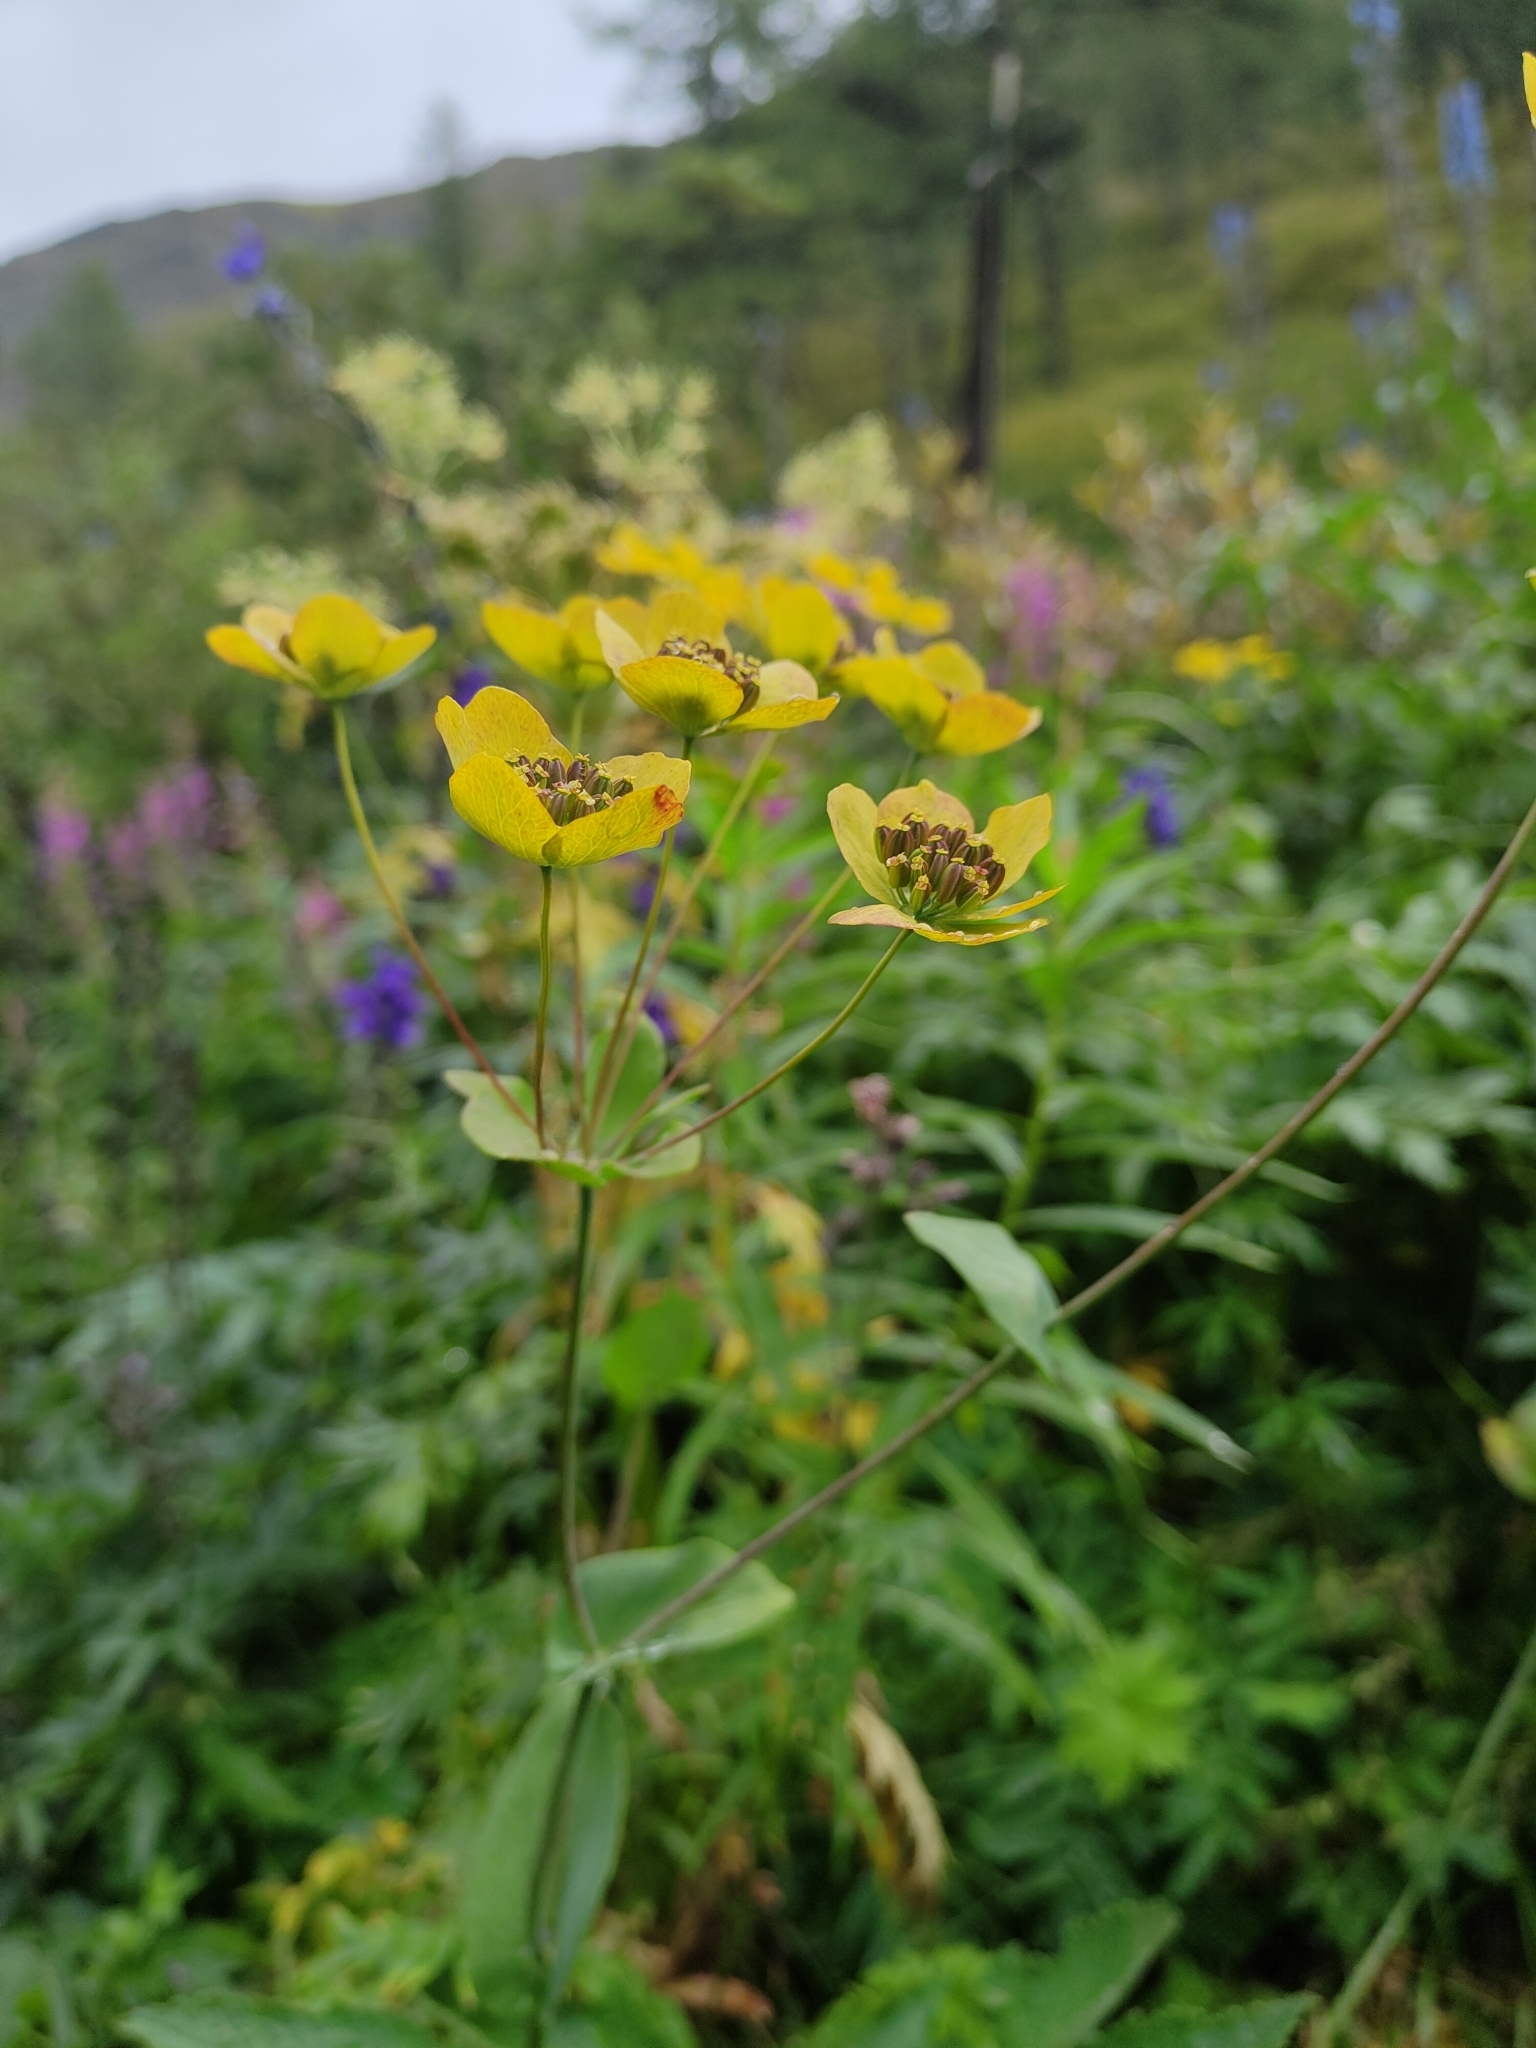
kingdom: Plantae
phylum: Tracheophyta
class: Magnoliopsida
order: Apiales
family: Apiaceae
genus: Bupleurum
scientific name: Bupleurum aureum
